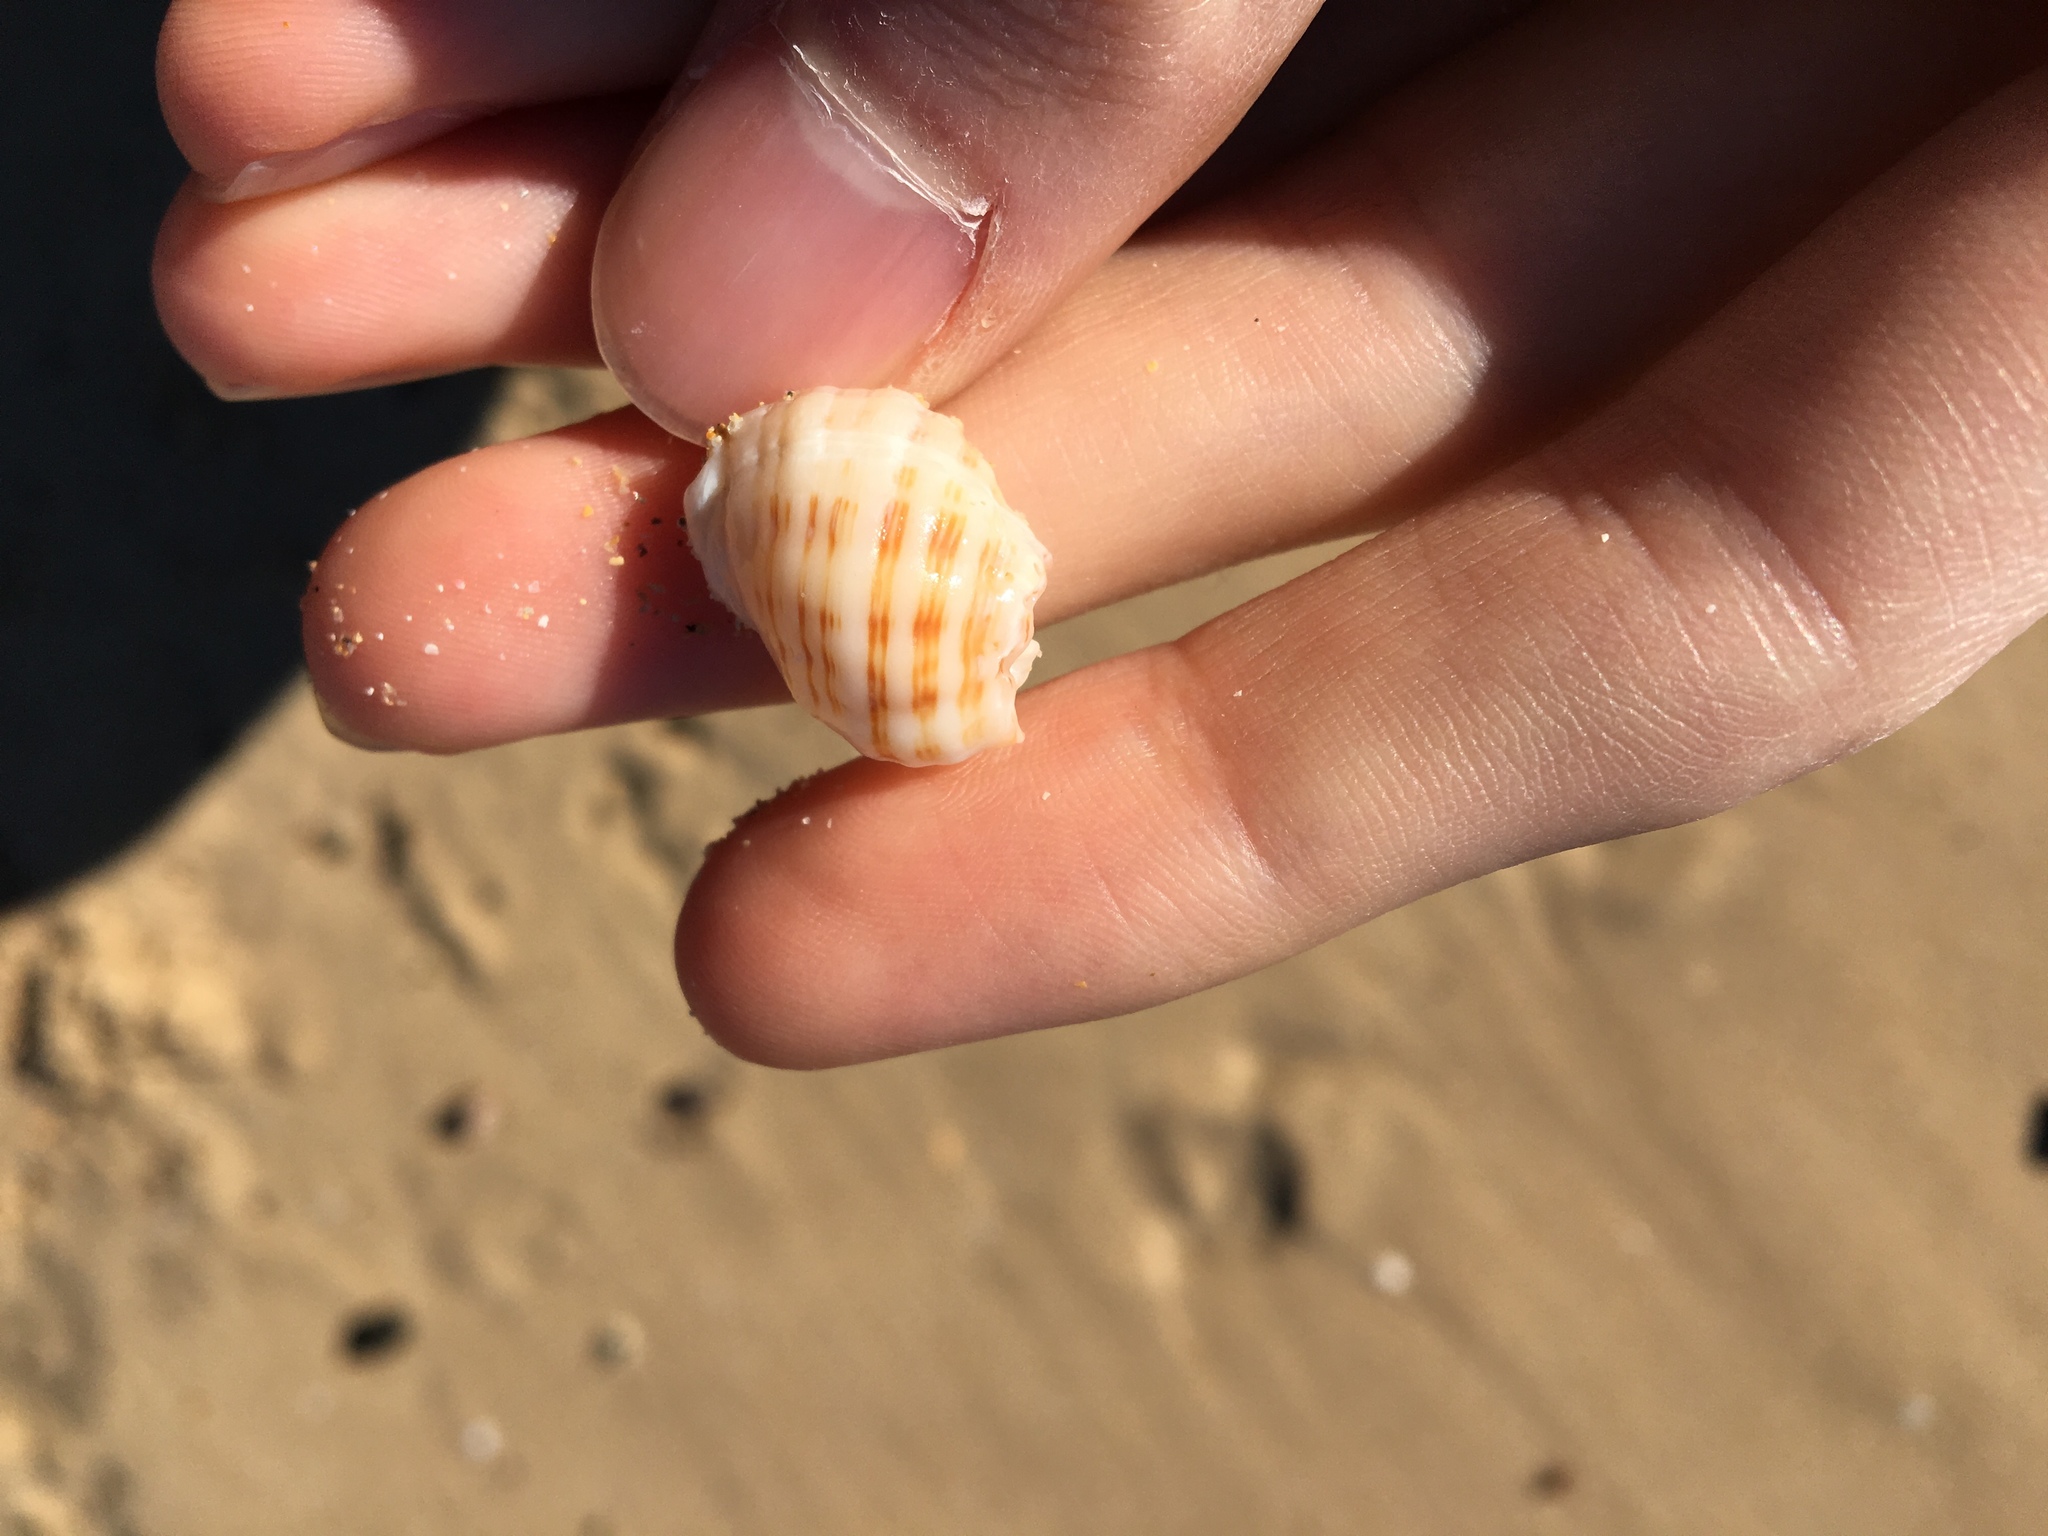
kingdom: Animalia
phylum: Mollusca
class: Gastropoda
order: Neogastropoda
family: Muricidae
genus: Dicathais
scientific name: Dicathais orbita
